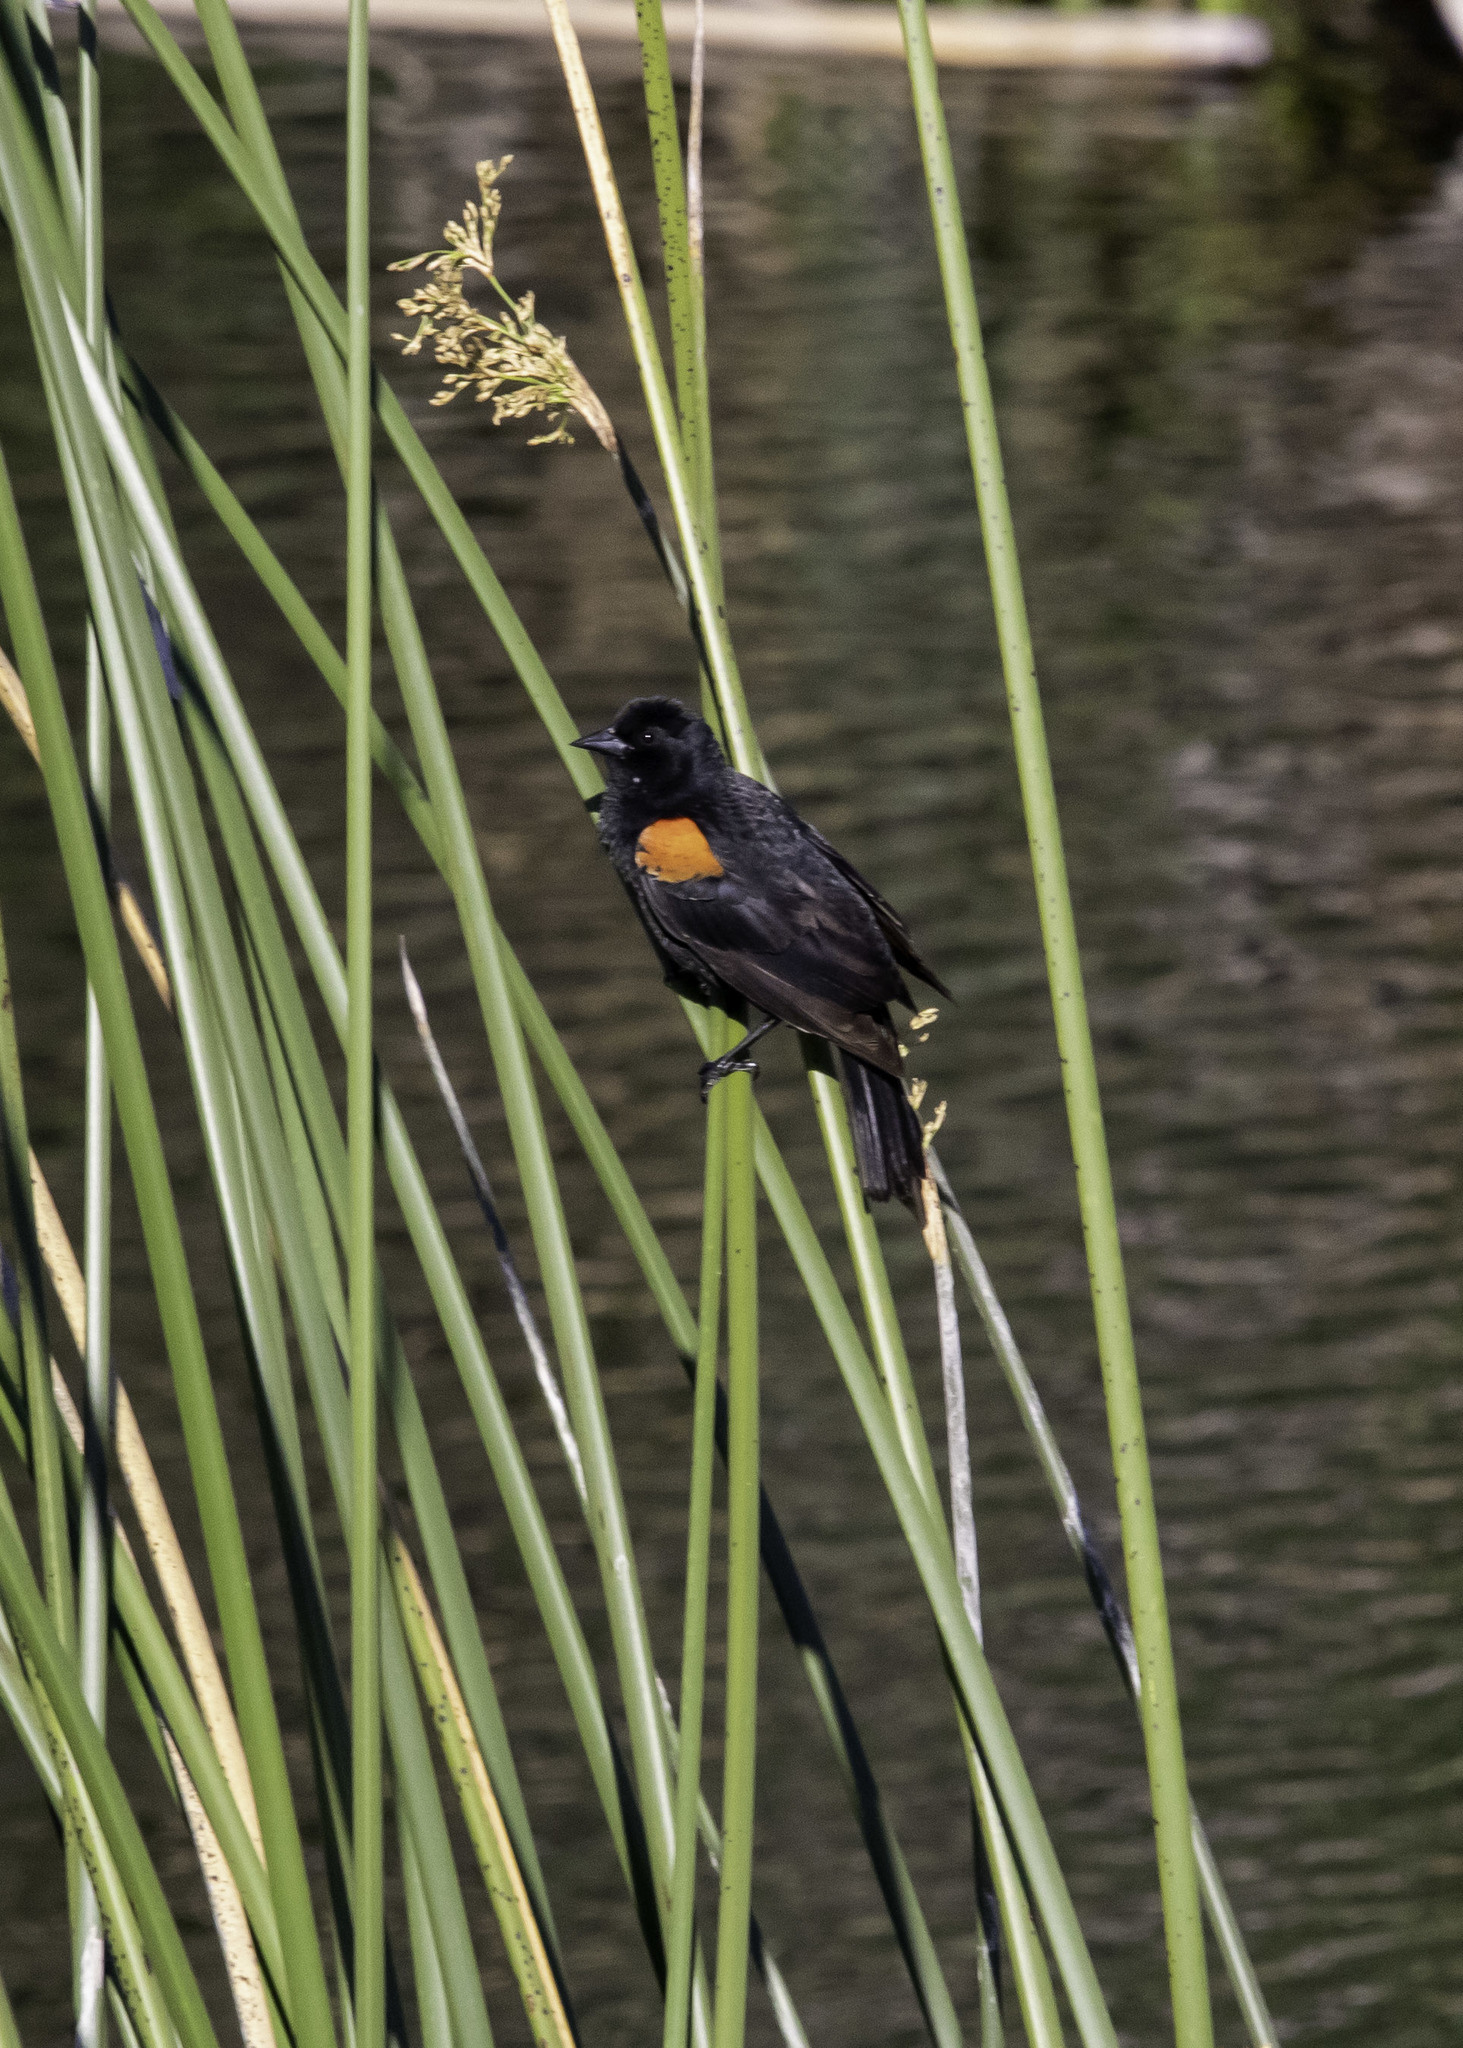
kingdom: Animalia
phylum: Chordata
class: Aves
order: Passeriformes
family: Icteridae
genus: Agelaius
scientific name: Agelaius phoeniceus
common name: Red-winged blackbird
